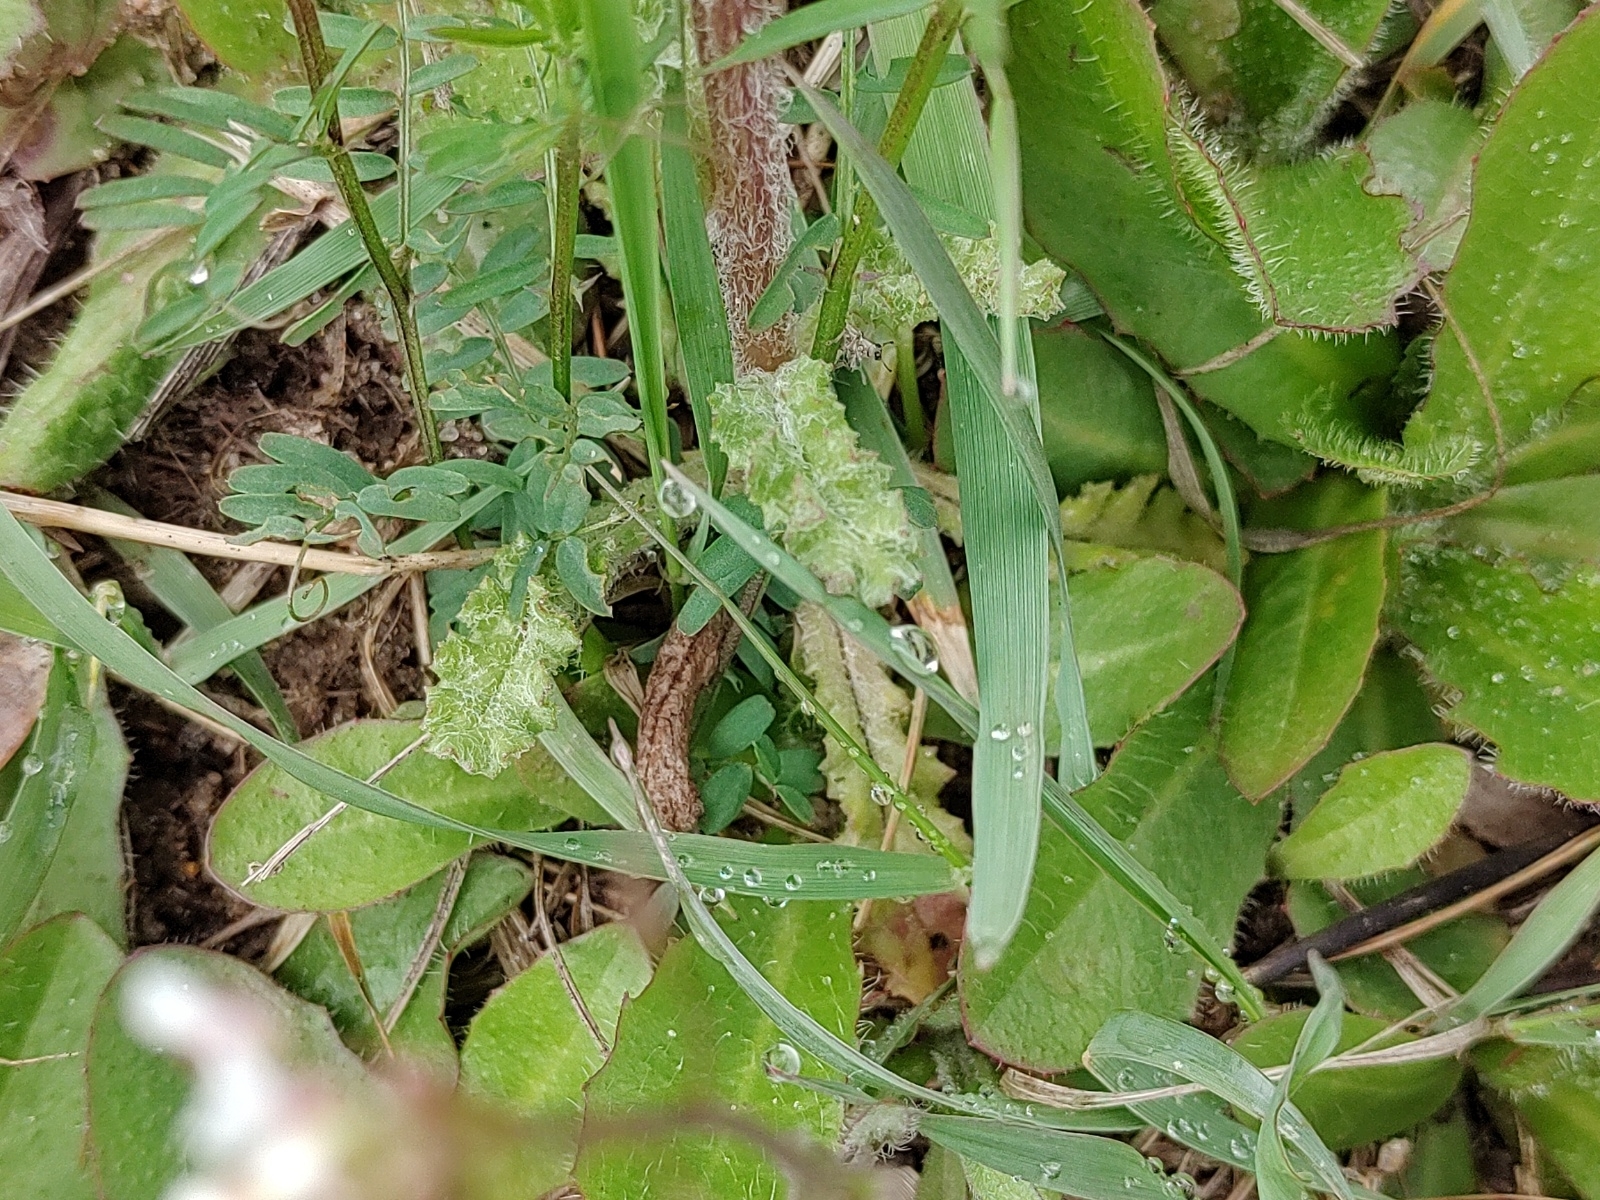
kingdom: Plantae
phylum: Tracheophyta
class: Magnoliopsida
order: Asterales
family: Asteraceae
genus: Senecio
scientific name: Senecio vulgaris
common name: Old-man-in-the-spring
